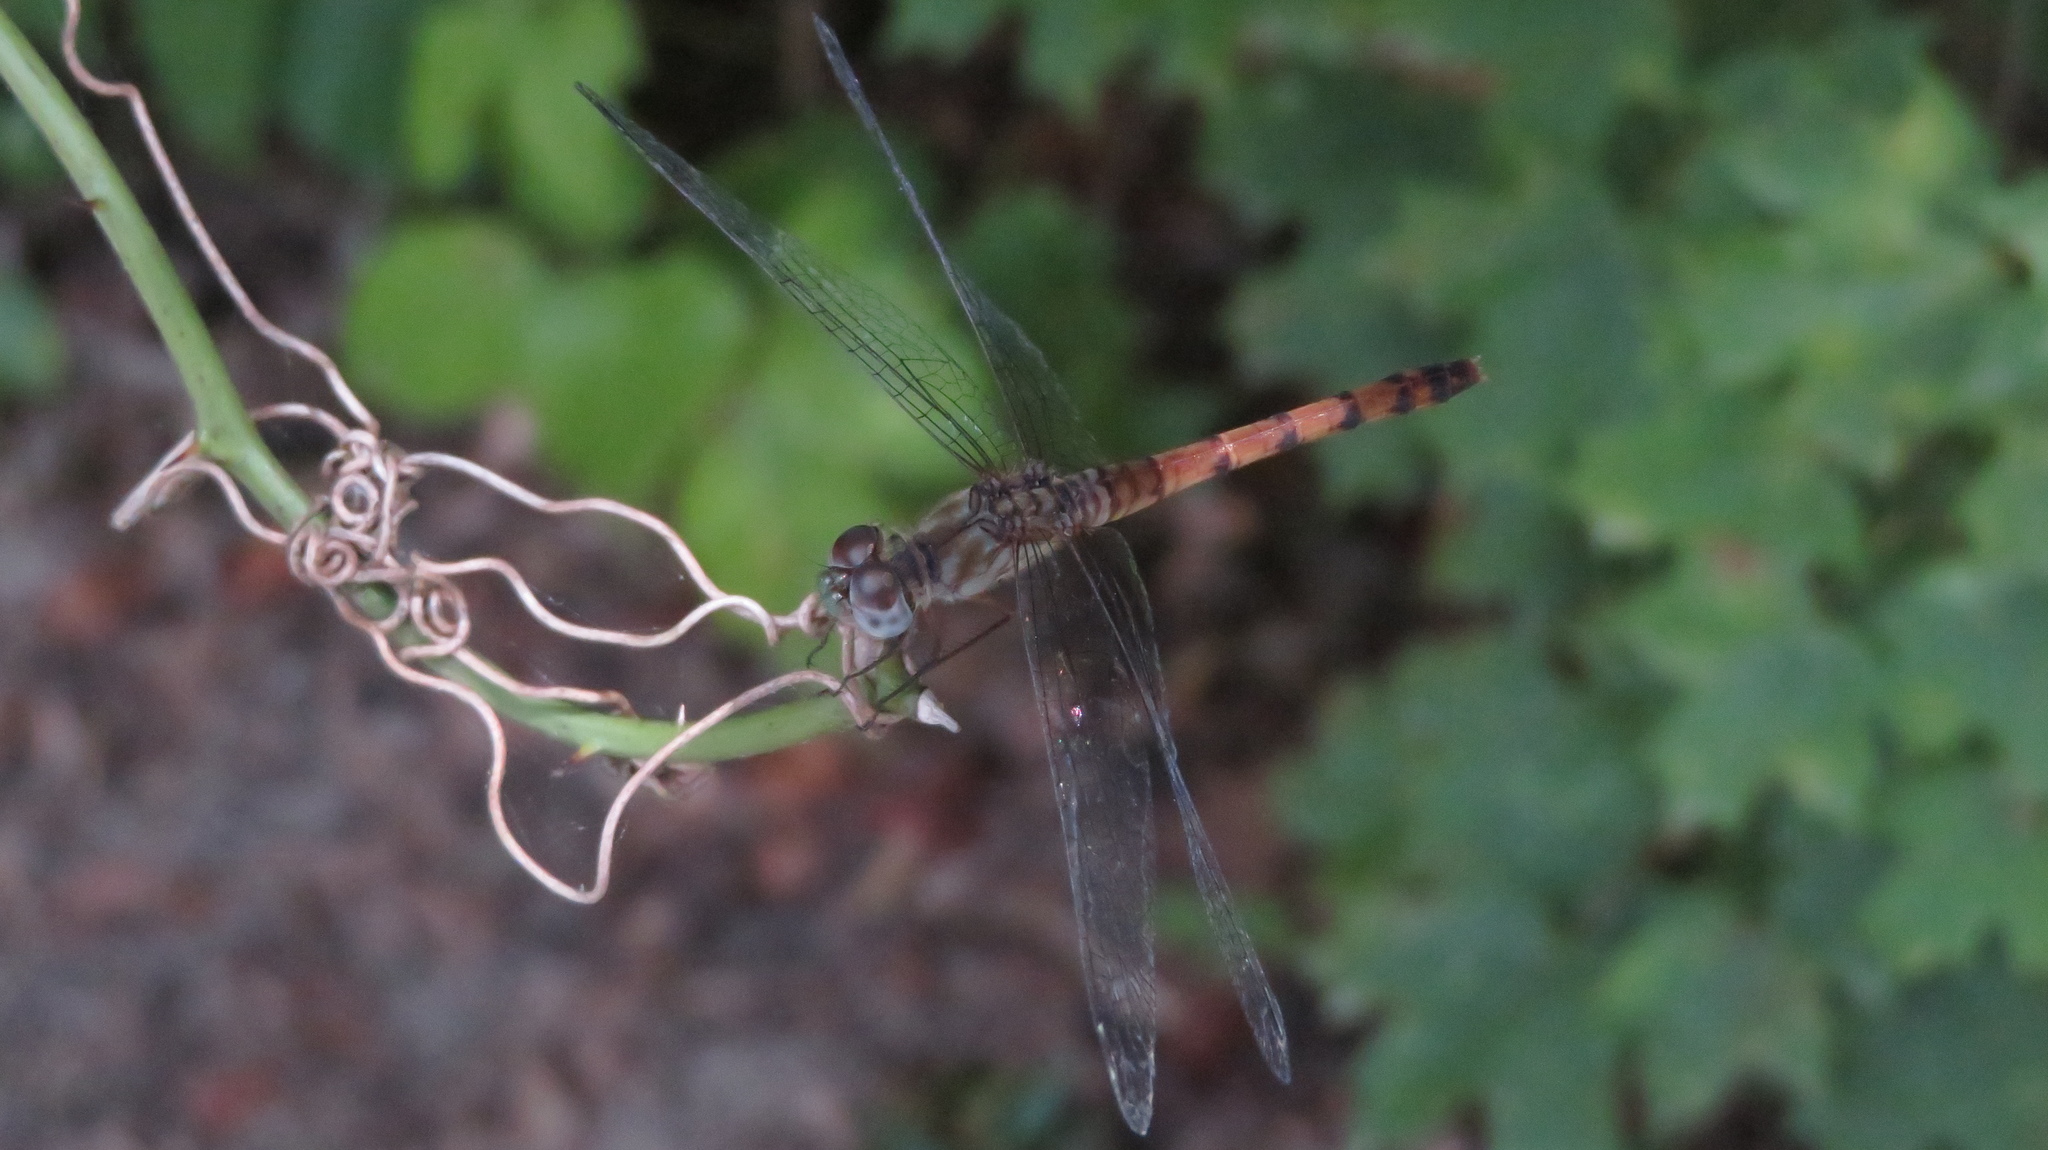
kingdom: Animalia
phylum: Arthropoda
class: Insecta
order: Odonata
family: Libellulidae
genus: Sympetrum
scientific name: Sympetrum ambiguum
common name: Blue-faced meadowhawk
